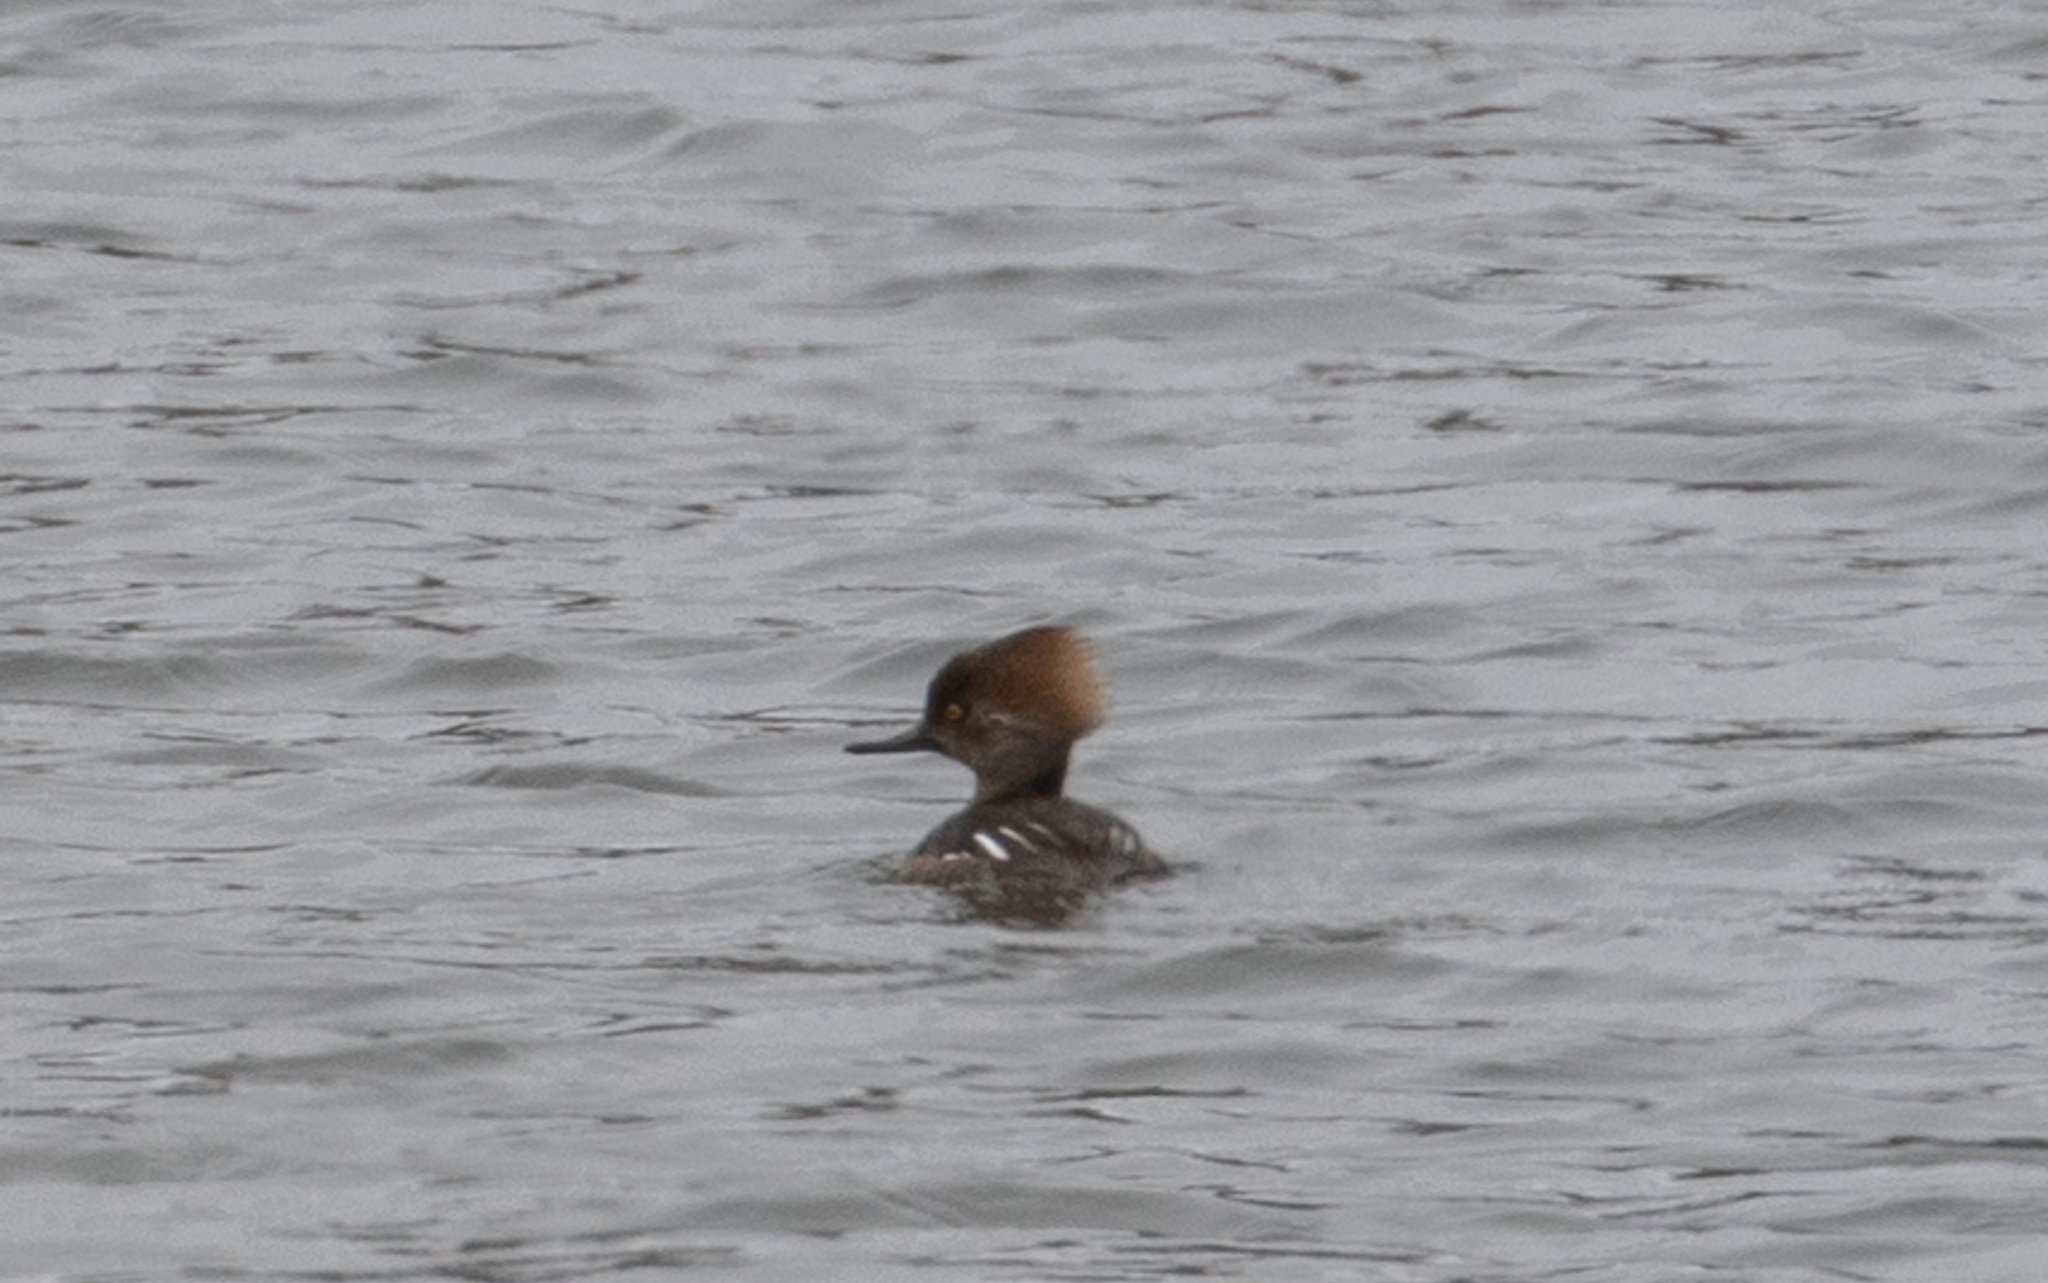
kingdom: Animalia
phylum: Chordata
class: Aves
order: Anseriformes
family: Anatidae
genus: Lophodytes
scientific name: Lophodytes cucullatus
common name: Hooded merganser
